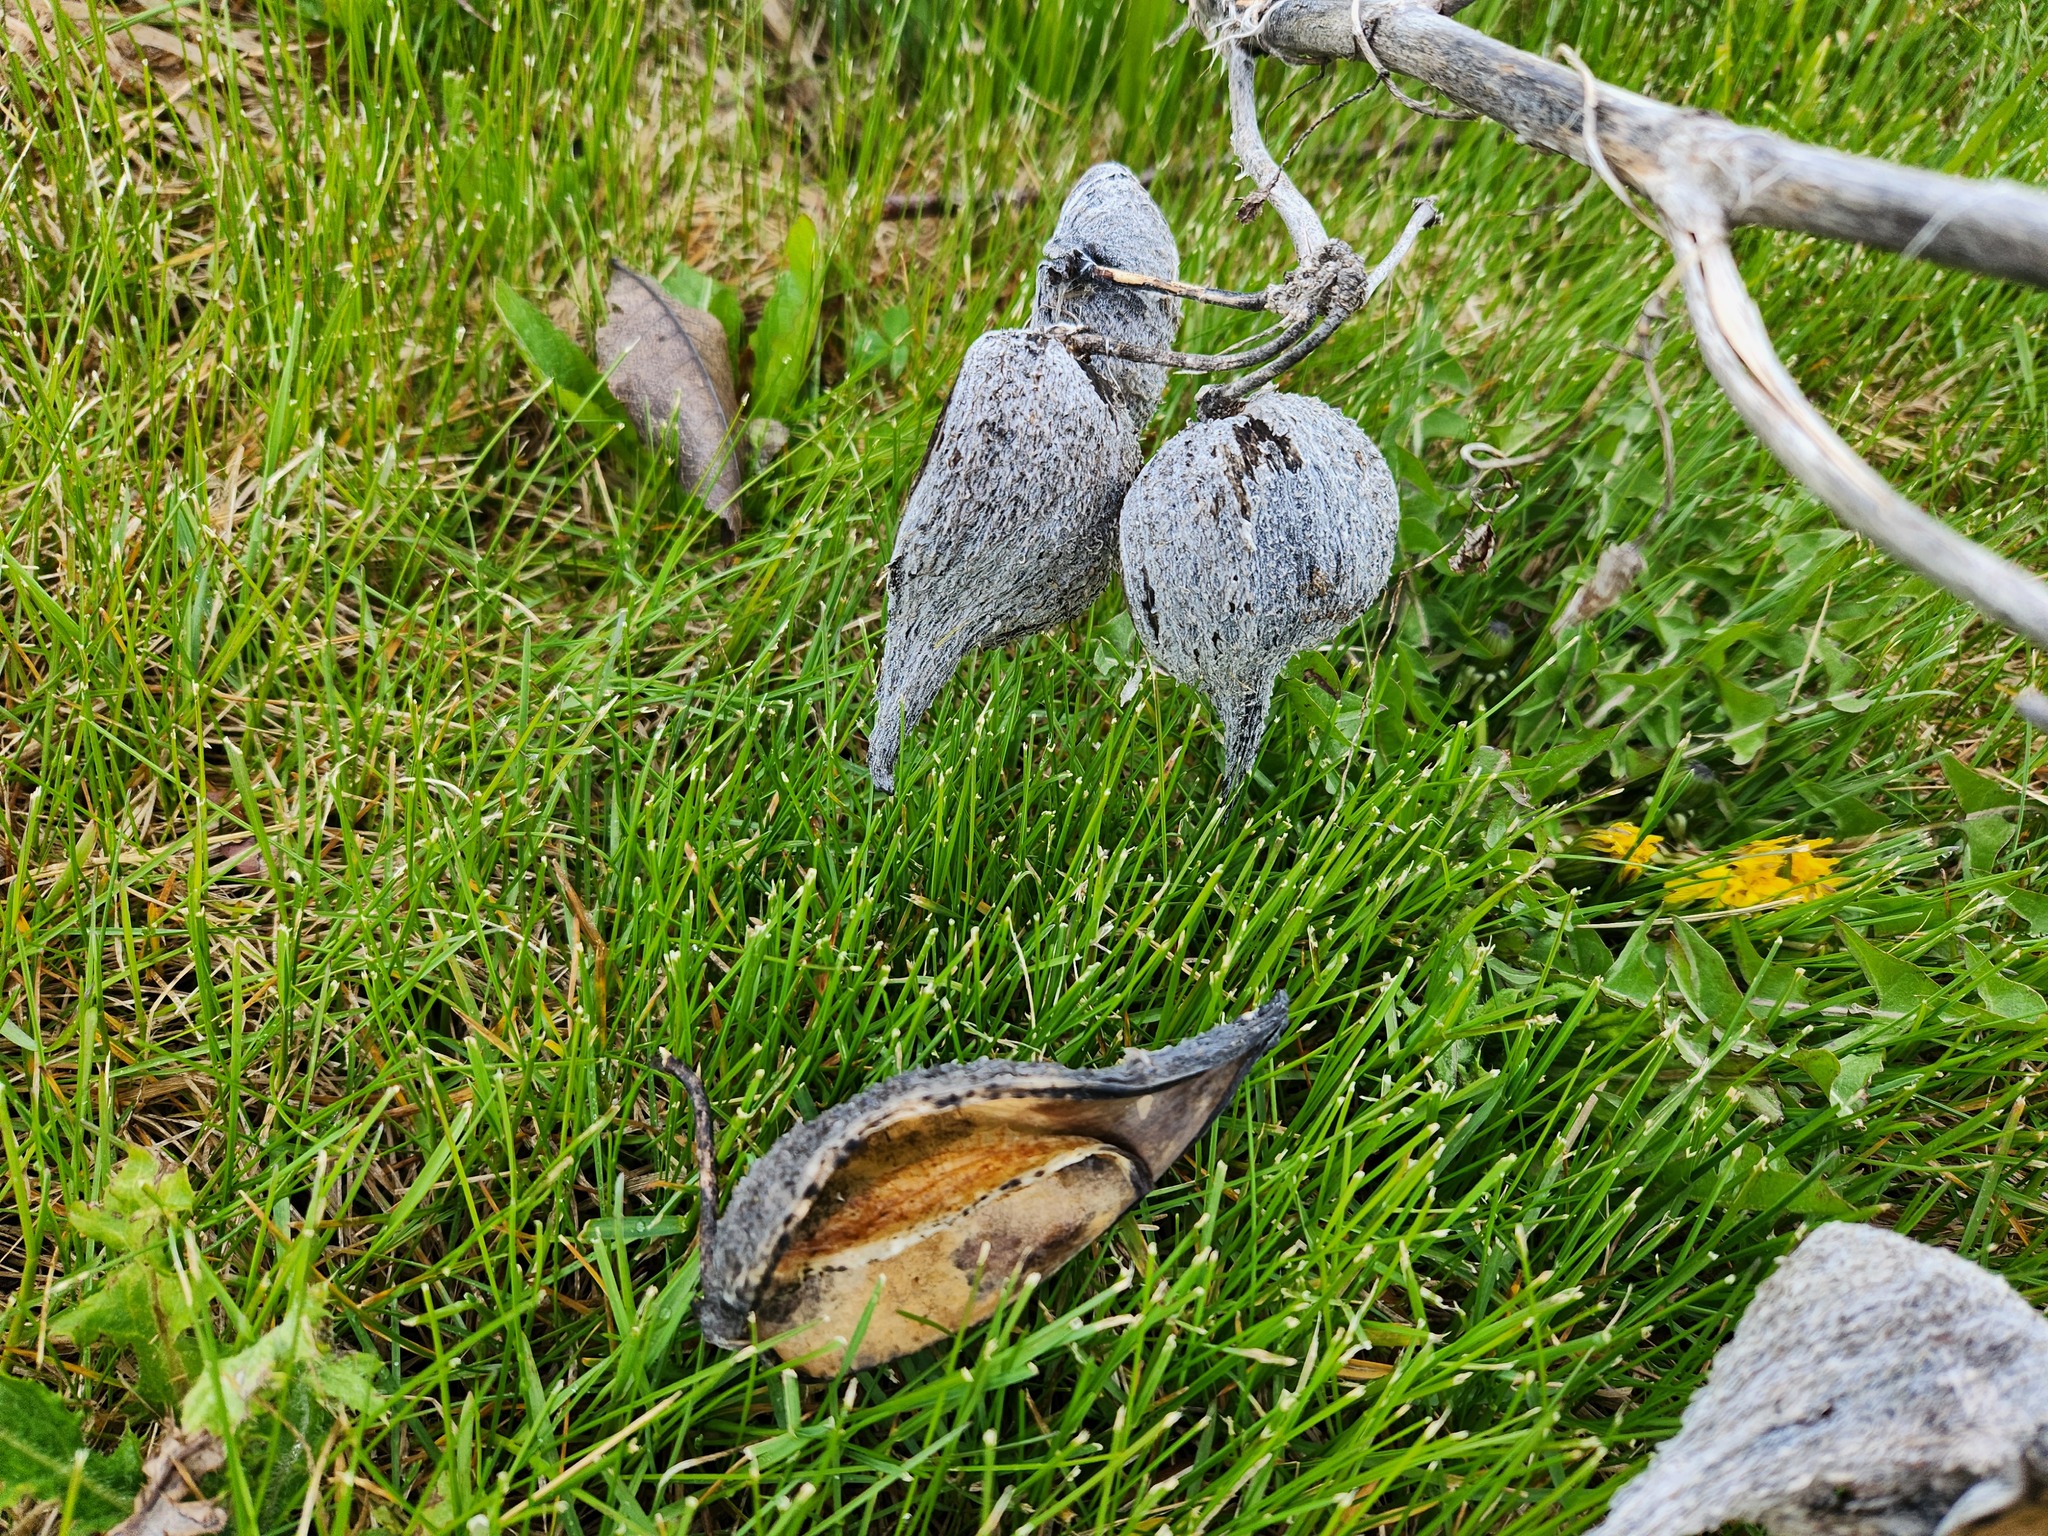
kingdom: Plantae
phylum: Tracheophyta
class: Magnoliopsida
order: Gentianales
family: Apocynaceae
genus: Asclepias
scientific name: Asclepias syriaca
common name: Common milkweed
